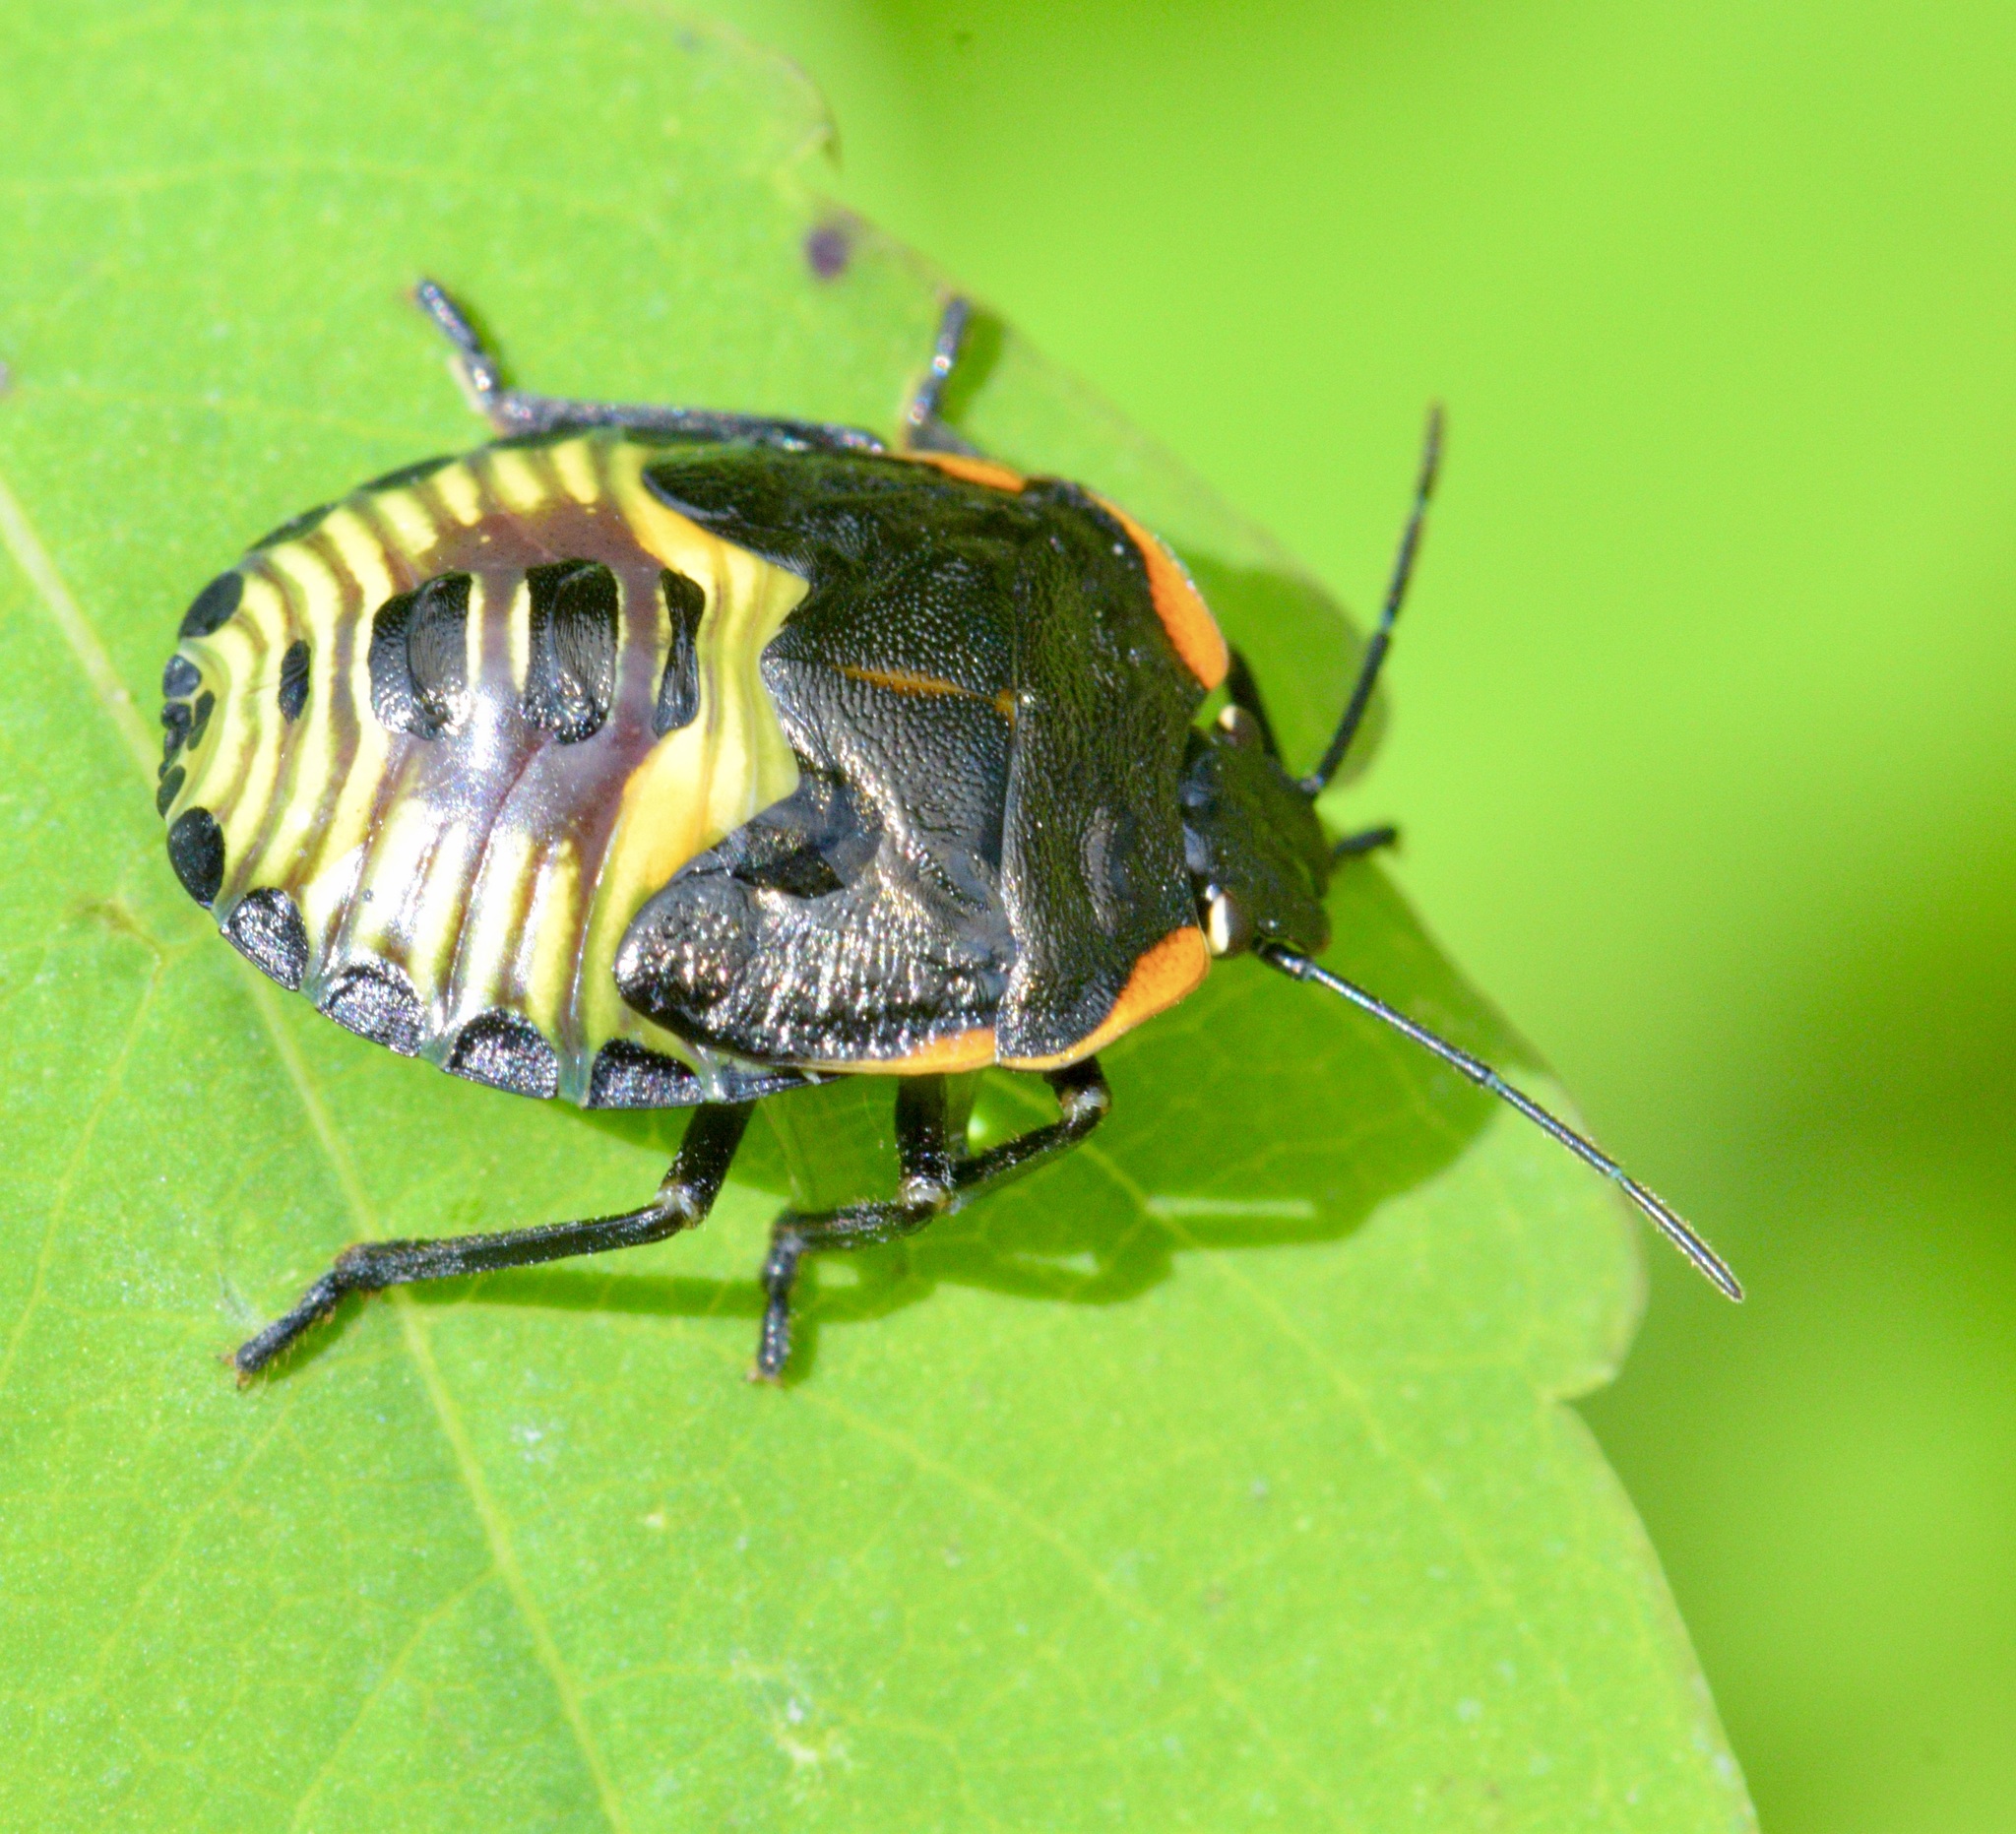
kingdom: Animalia
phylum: Arthropoda
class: Insecta
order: Hemiptera
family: Pentatomidae
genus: Chinavia
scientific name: Chinavia hilaris
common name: Green stink bug
